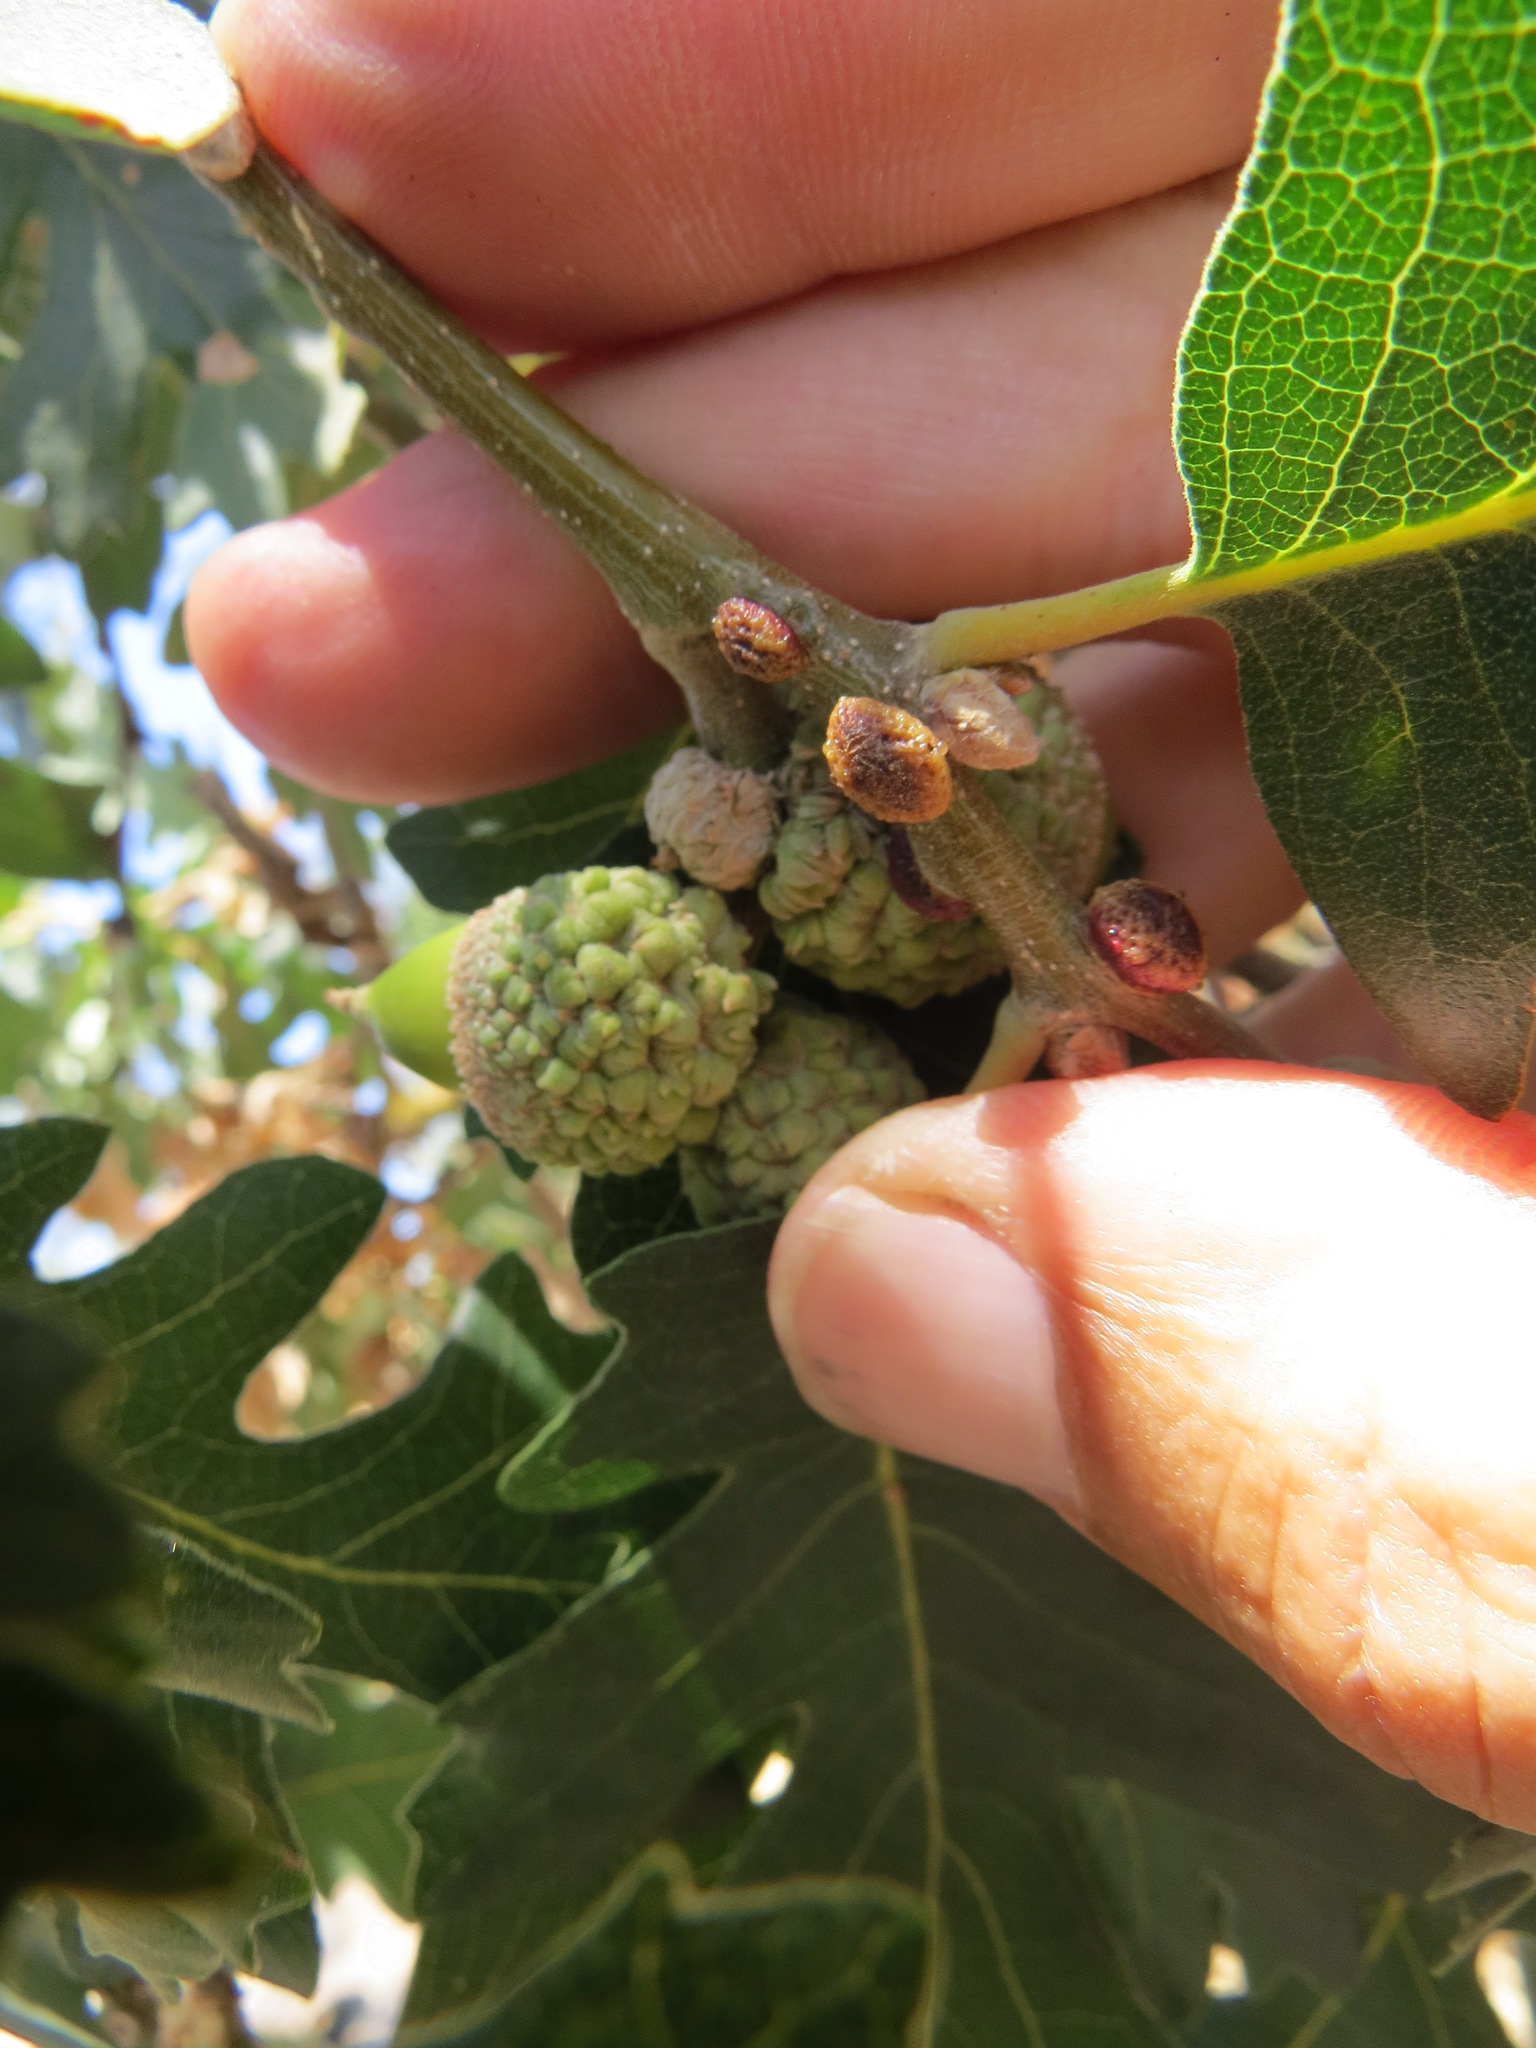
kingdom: Animalia
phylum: Arthropoda
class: Insecta
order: Hymenoptera
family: Cynipidae
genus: Disholcaspis
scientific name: Disholcaspis
